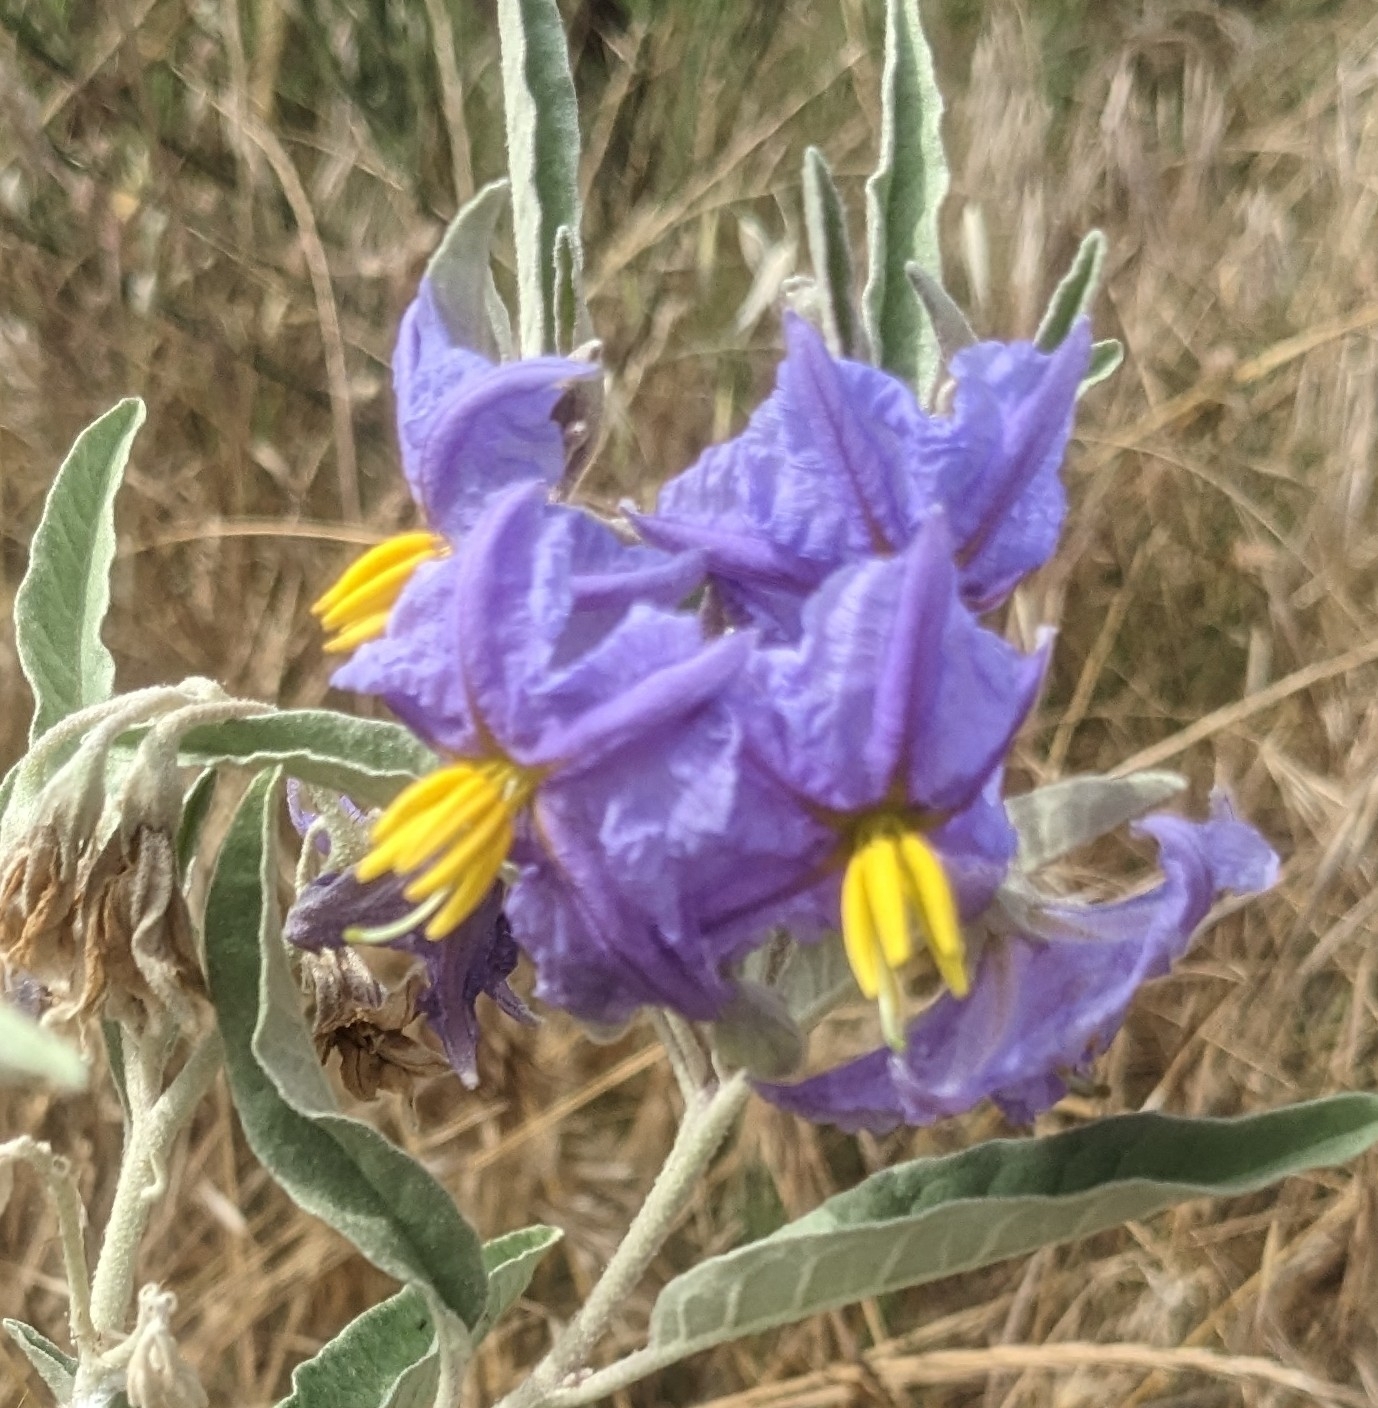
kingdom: Plantae
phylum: Tracheophyta
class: Magnoliopsida
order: Solanales
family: Solanaceae
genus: Solanum
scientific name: Solanum elaeagnifolium
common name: Silverleaf nightshade
